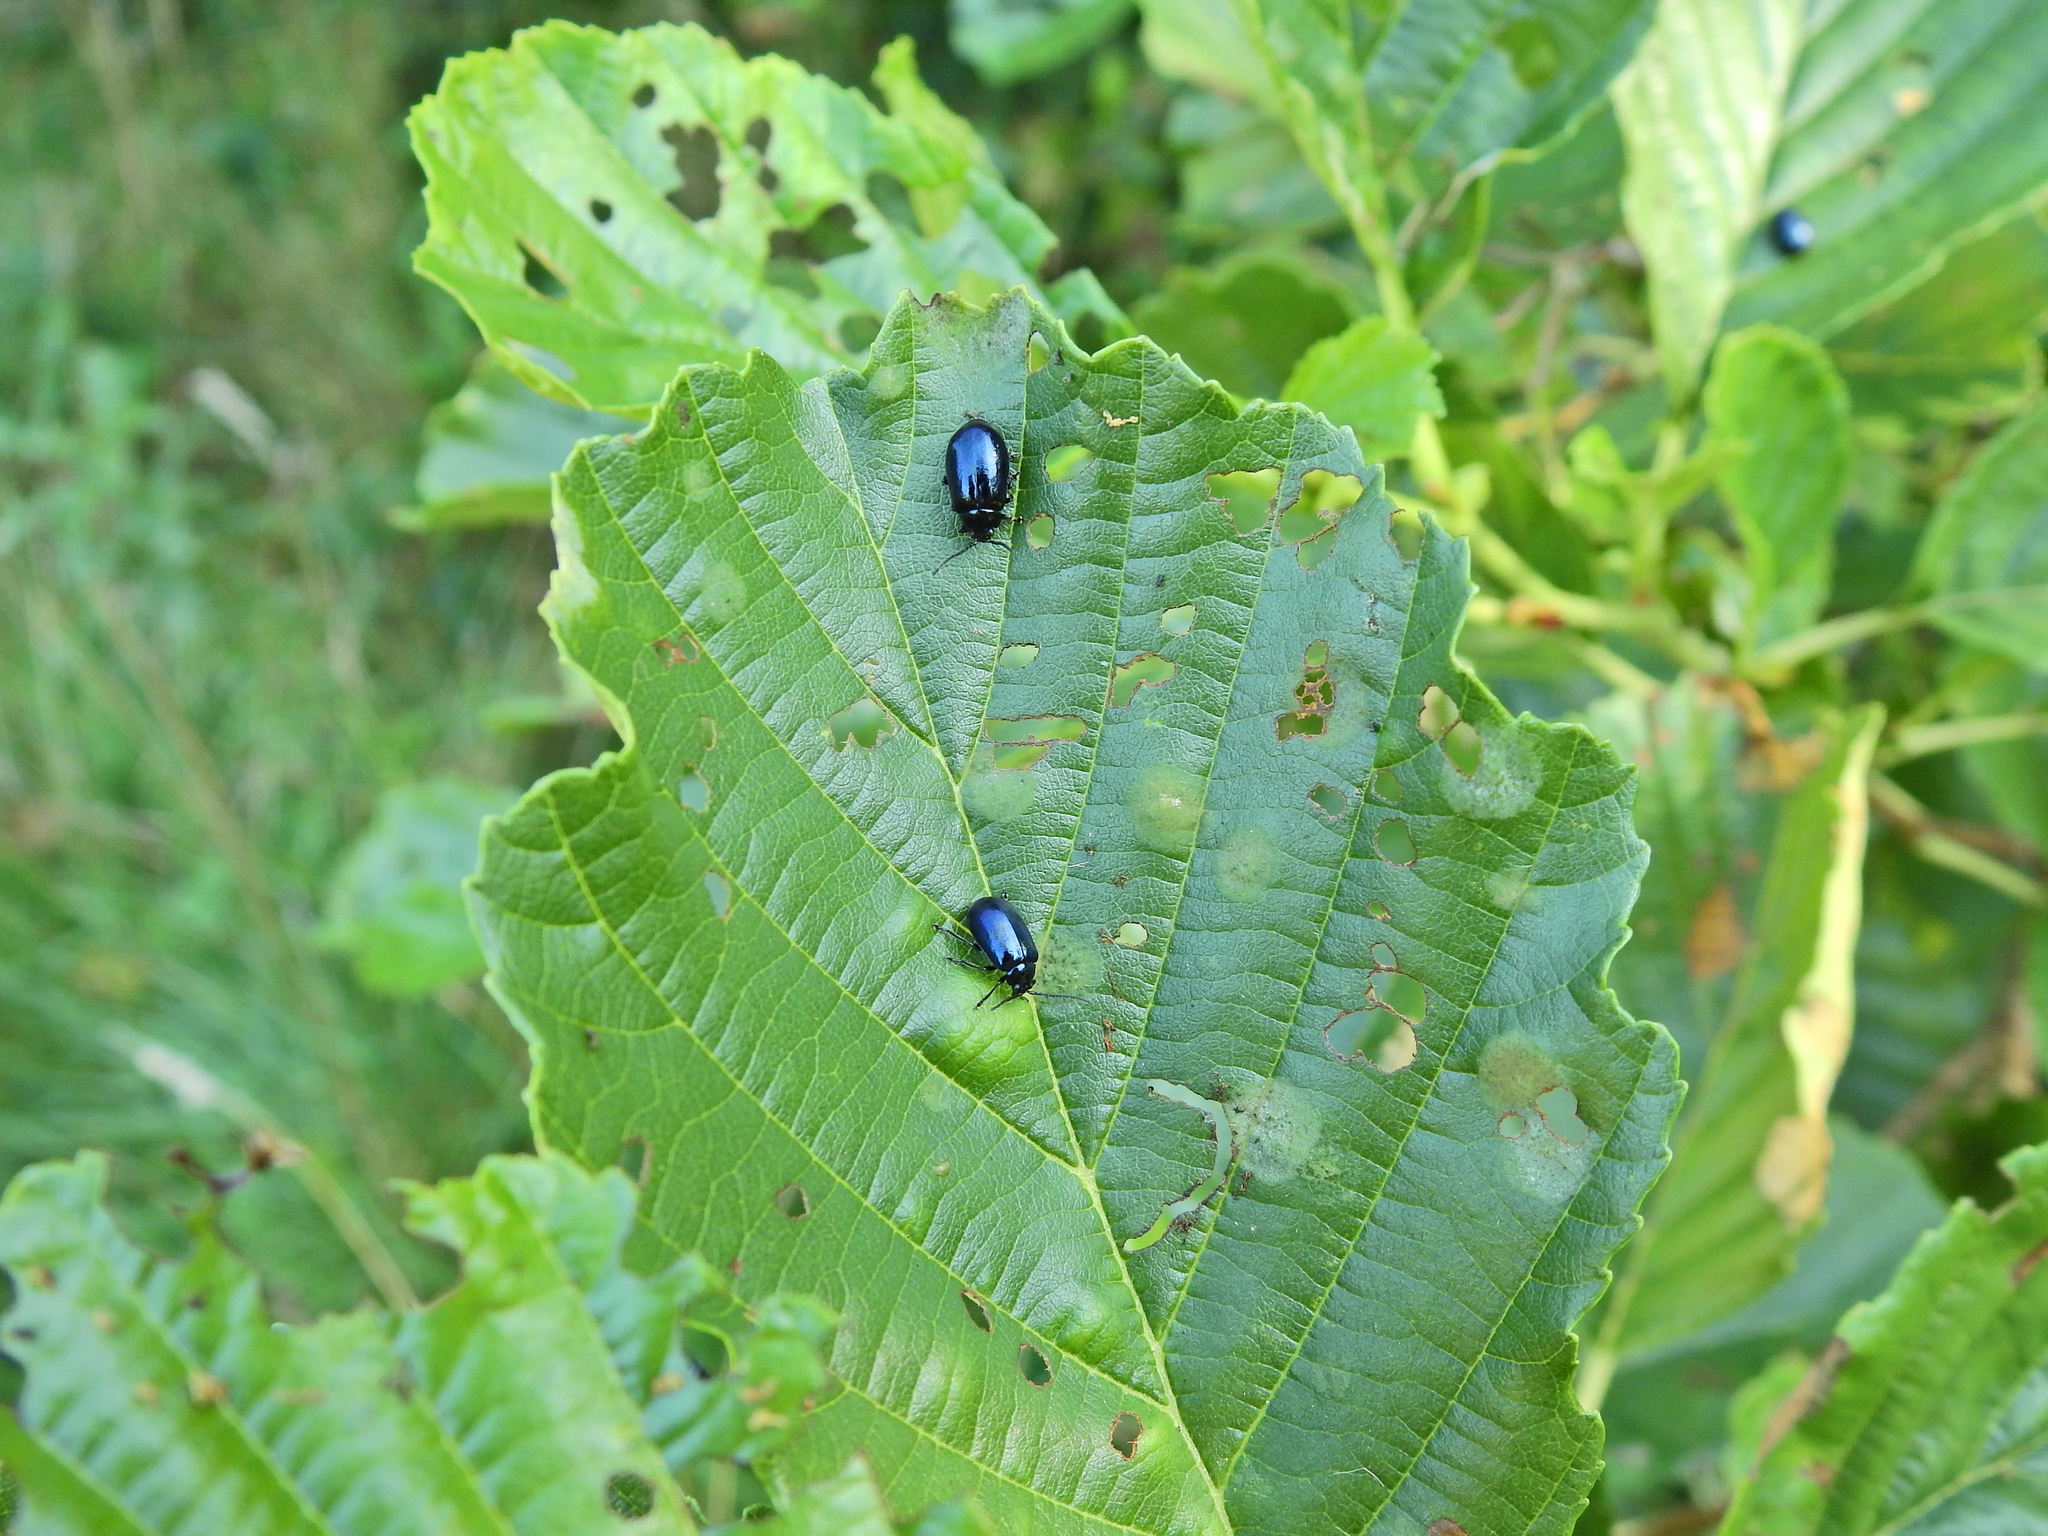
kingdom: Animalia
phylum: Arthropoda
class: Insecta
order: Coleoptera
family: Chrysomelidae
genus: Agelastica
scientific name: Agelastica alni
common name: Alder leaf beetle
